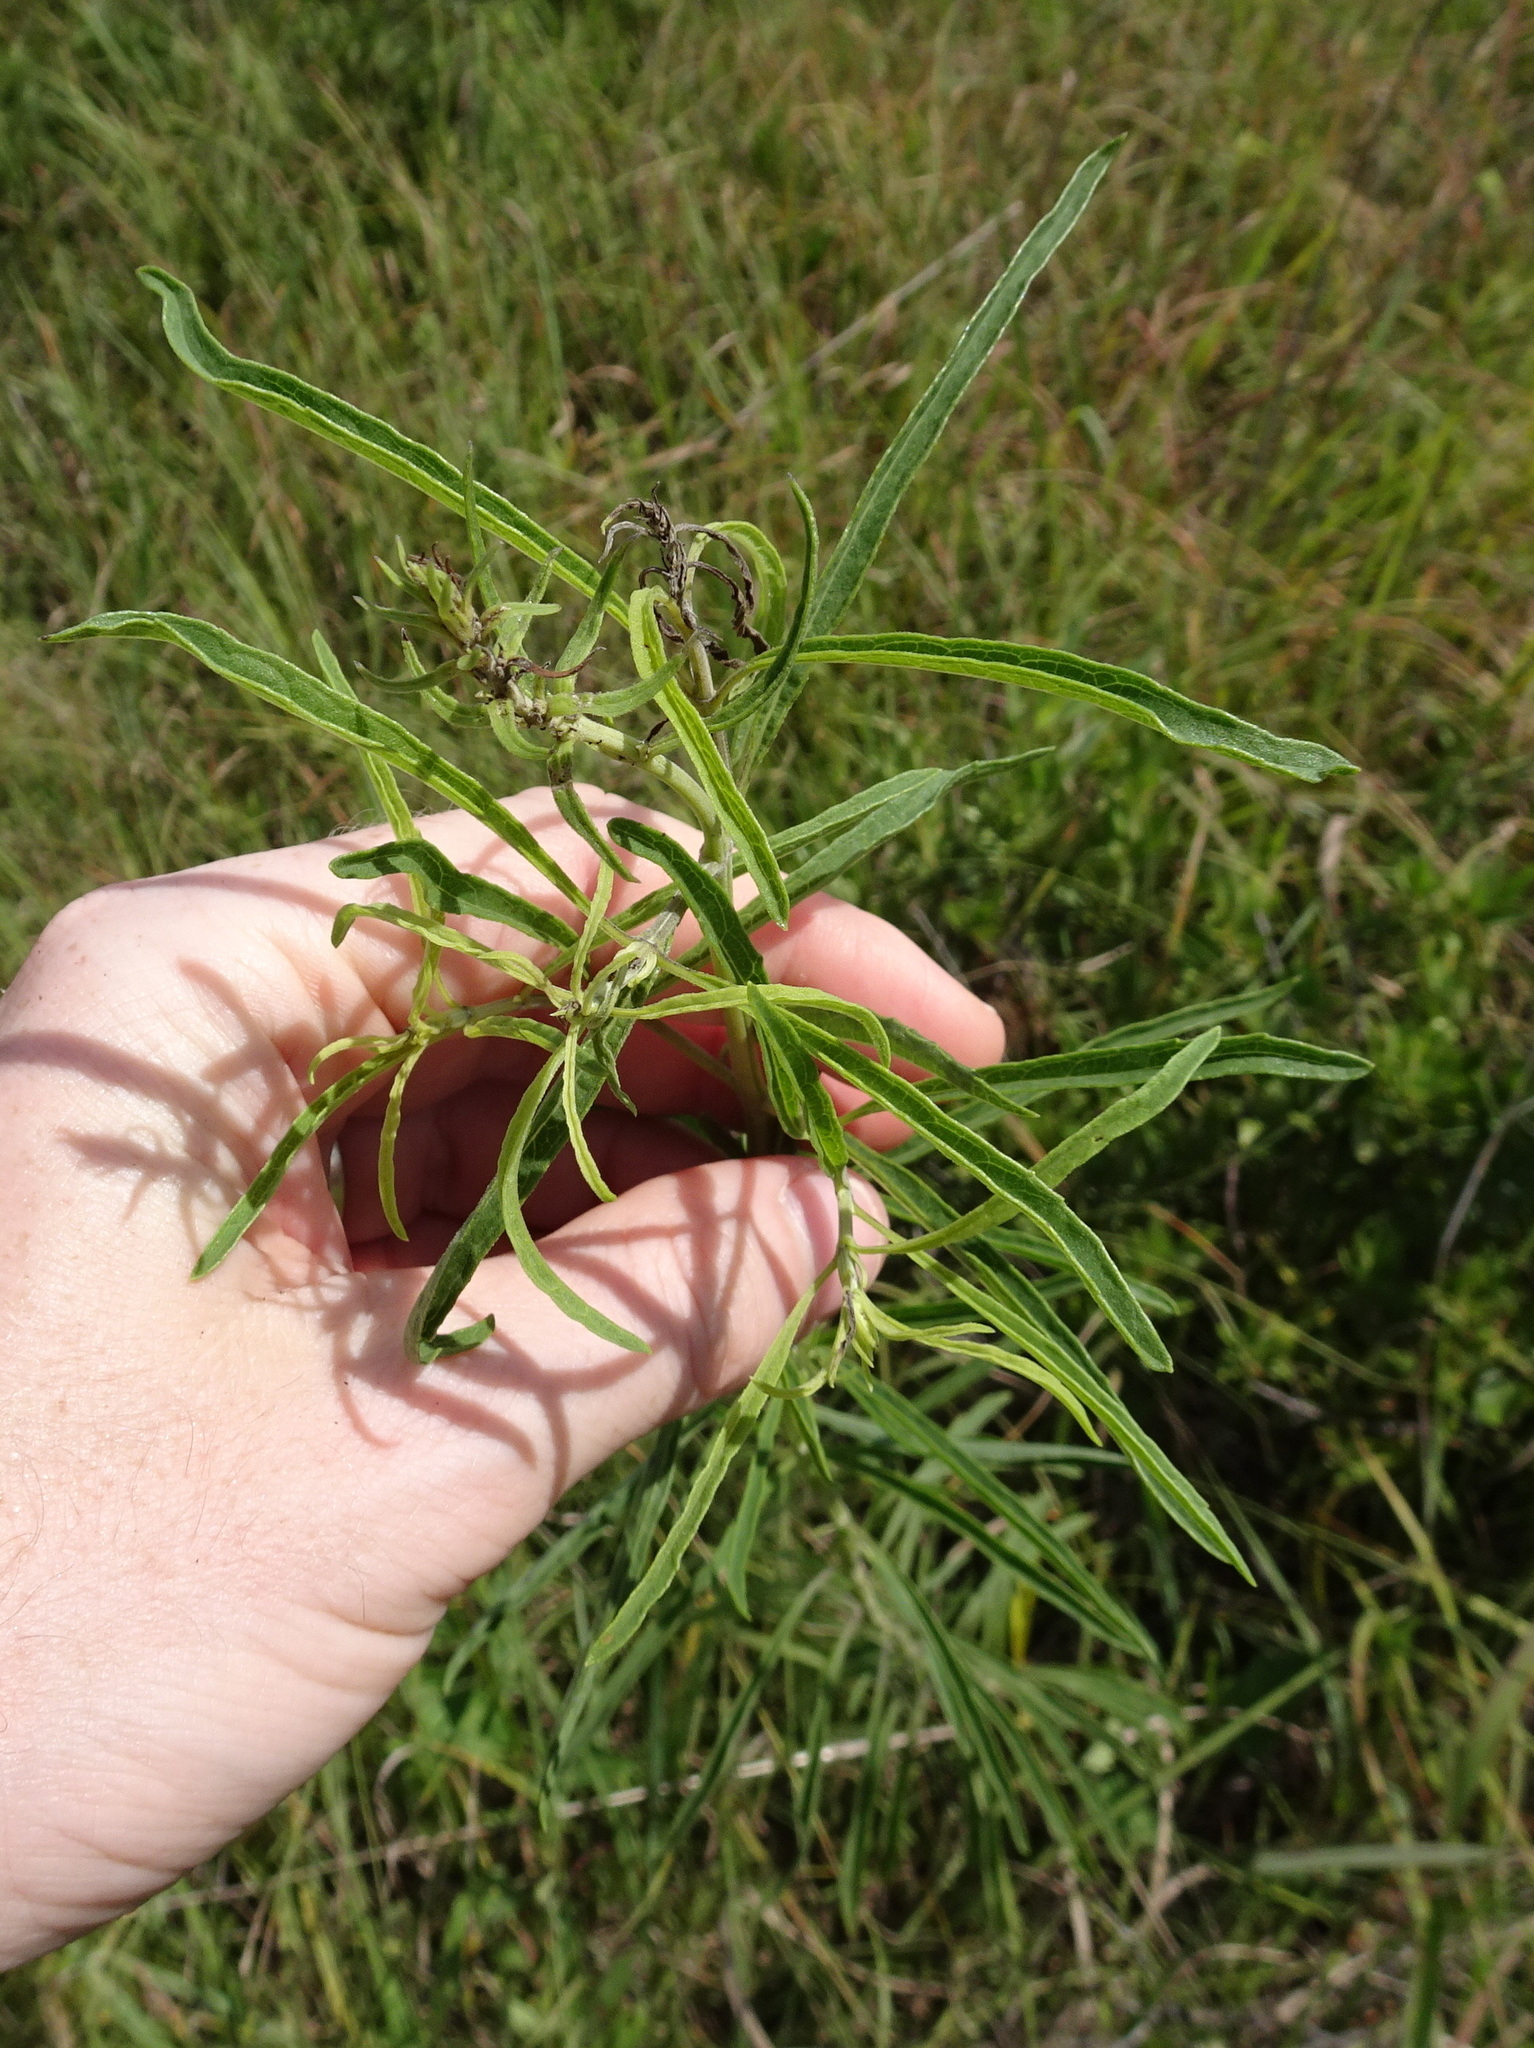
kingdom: Plantae
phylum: Tracheophyta
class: Magnoliopsida
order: Lamiales
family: Lamiaceae
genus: Salvia
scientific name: Salvia azurea
